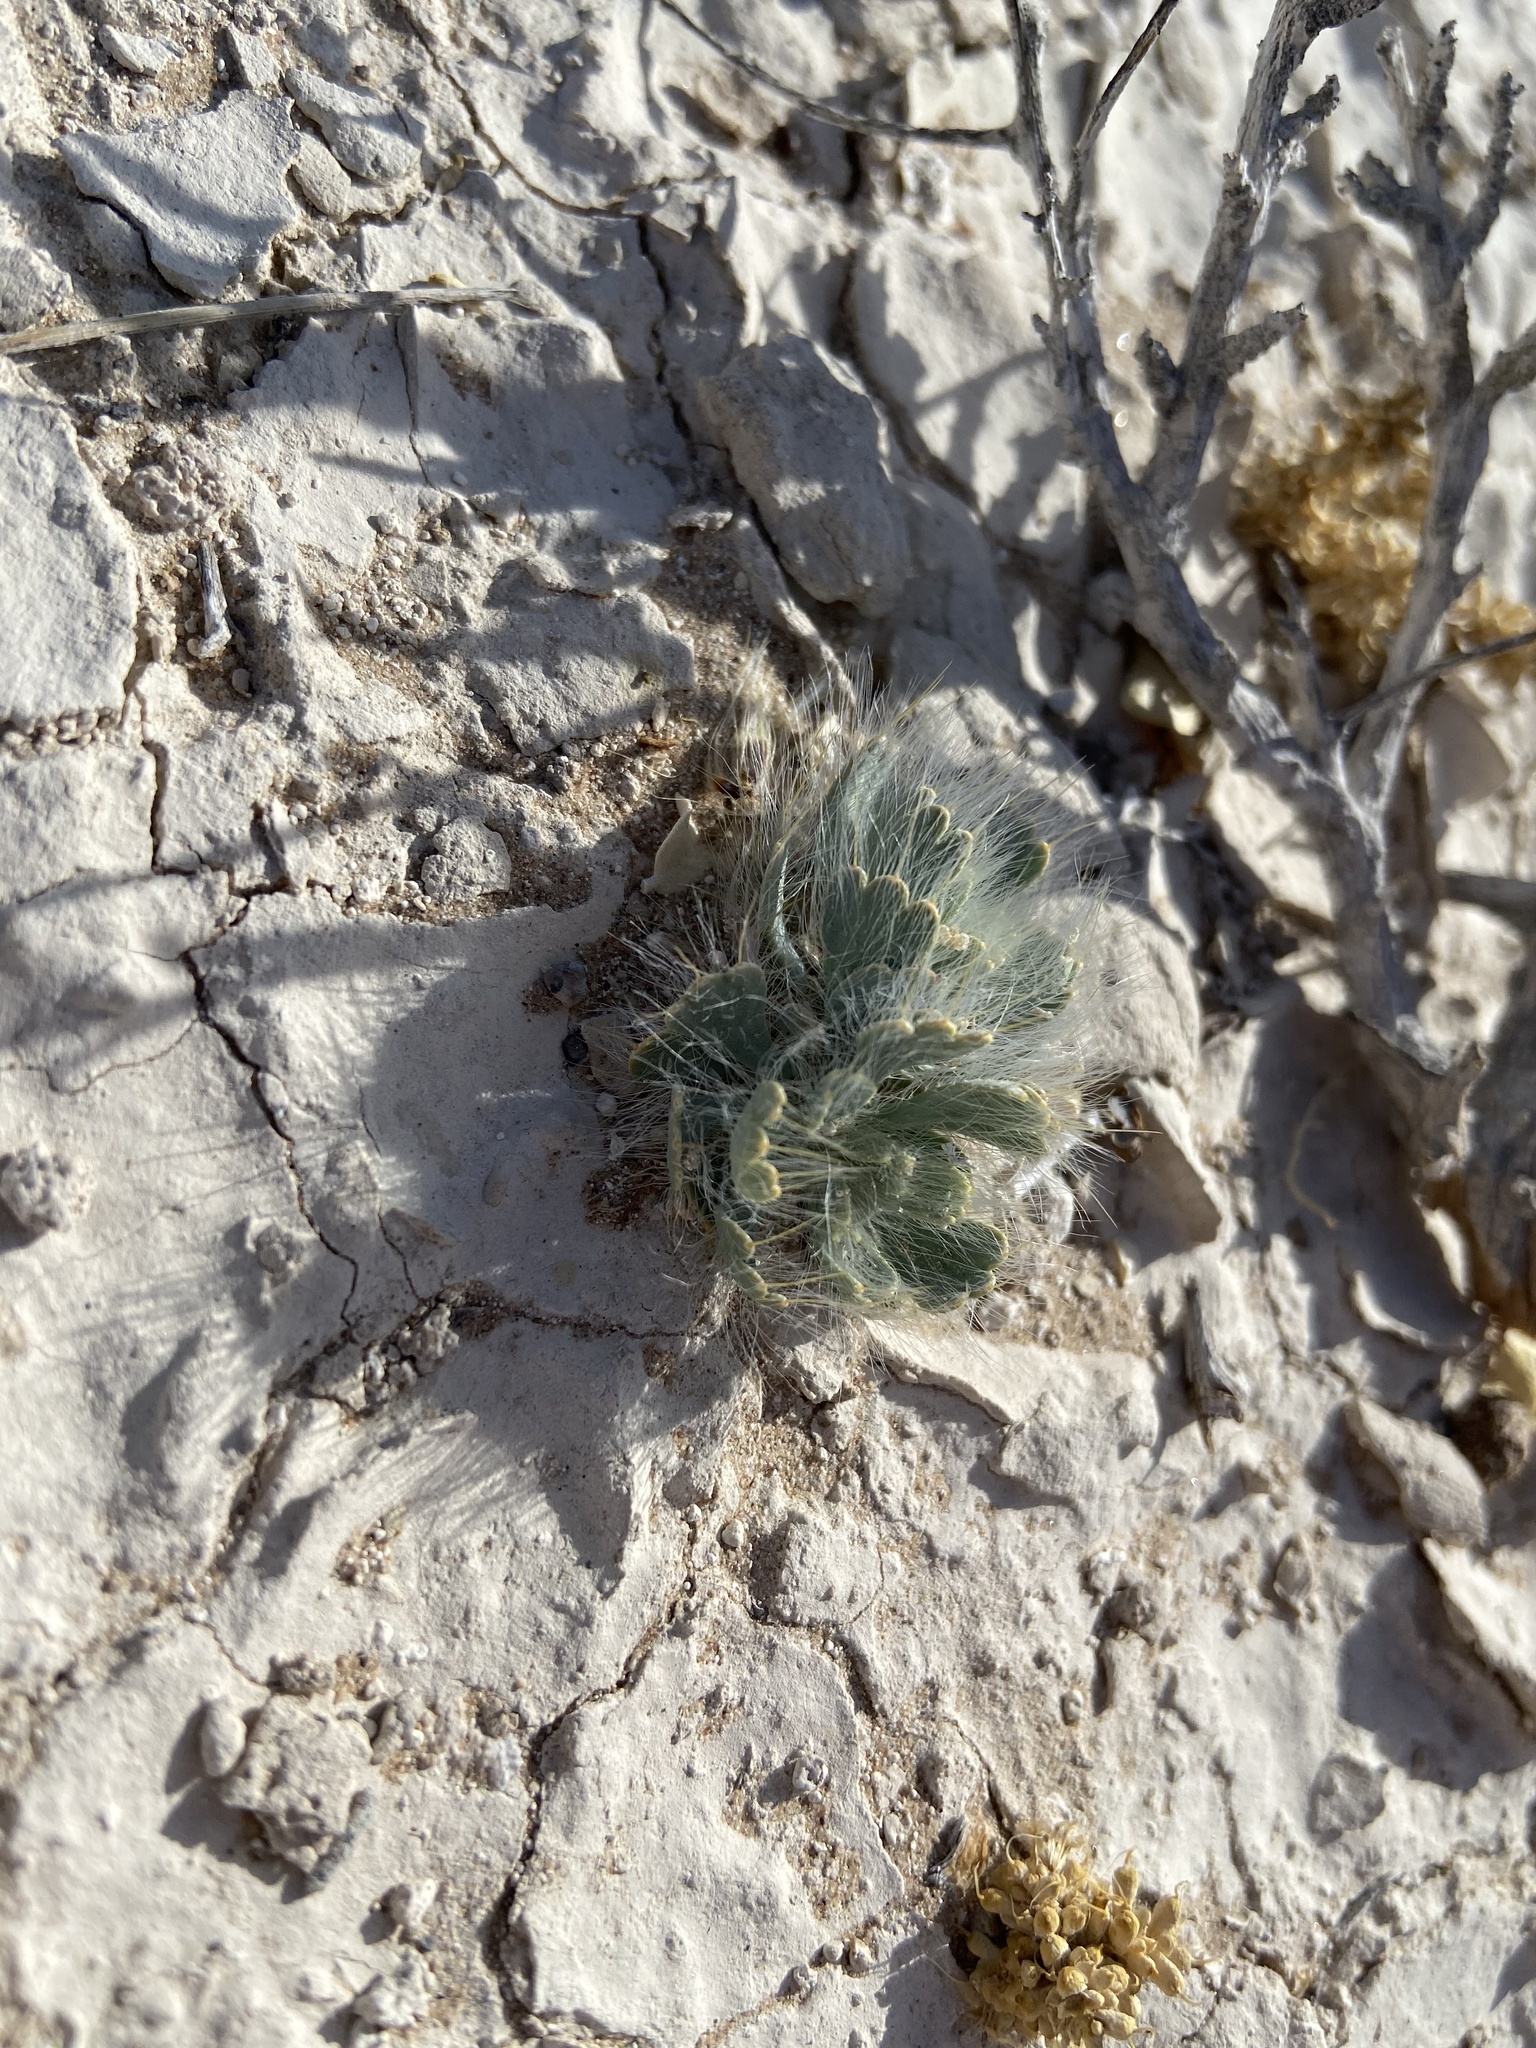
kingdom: Plantae
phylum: Tracheophyta
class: Magnoliopsida
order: Ranunculales
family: Papaveraceae
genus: Arctomecon
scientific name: Arctomecon californicum
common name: Golden bearclaw-poppy
